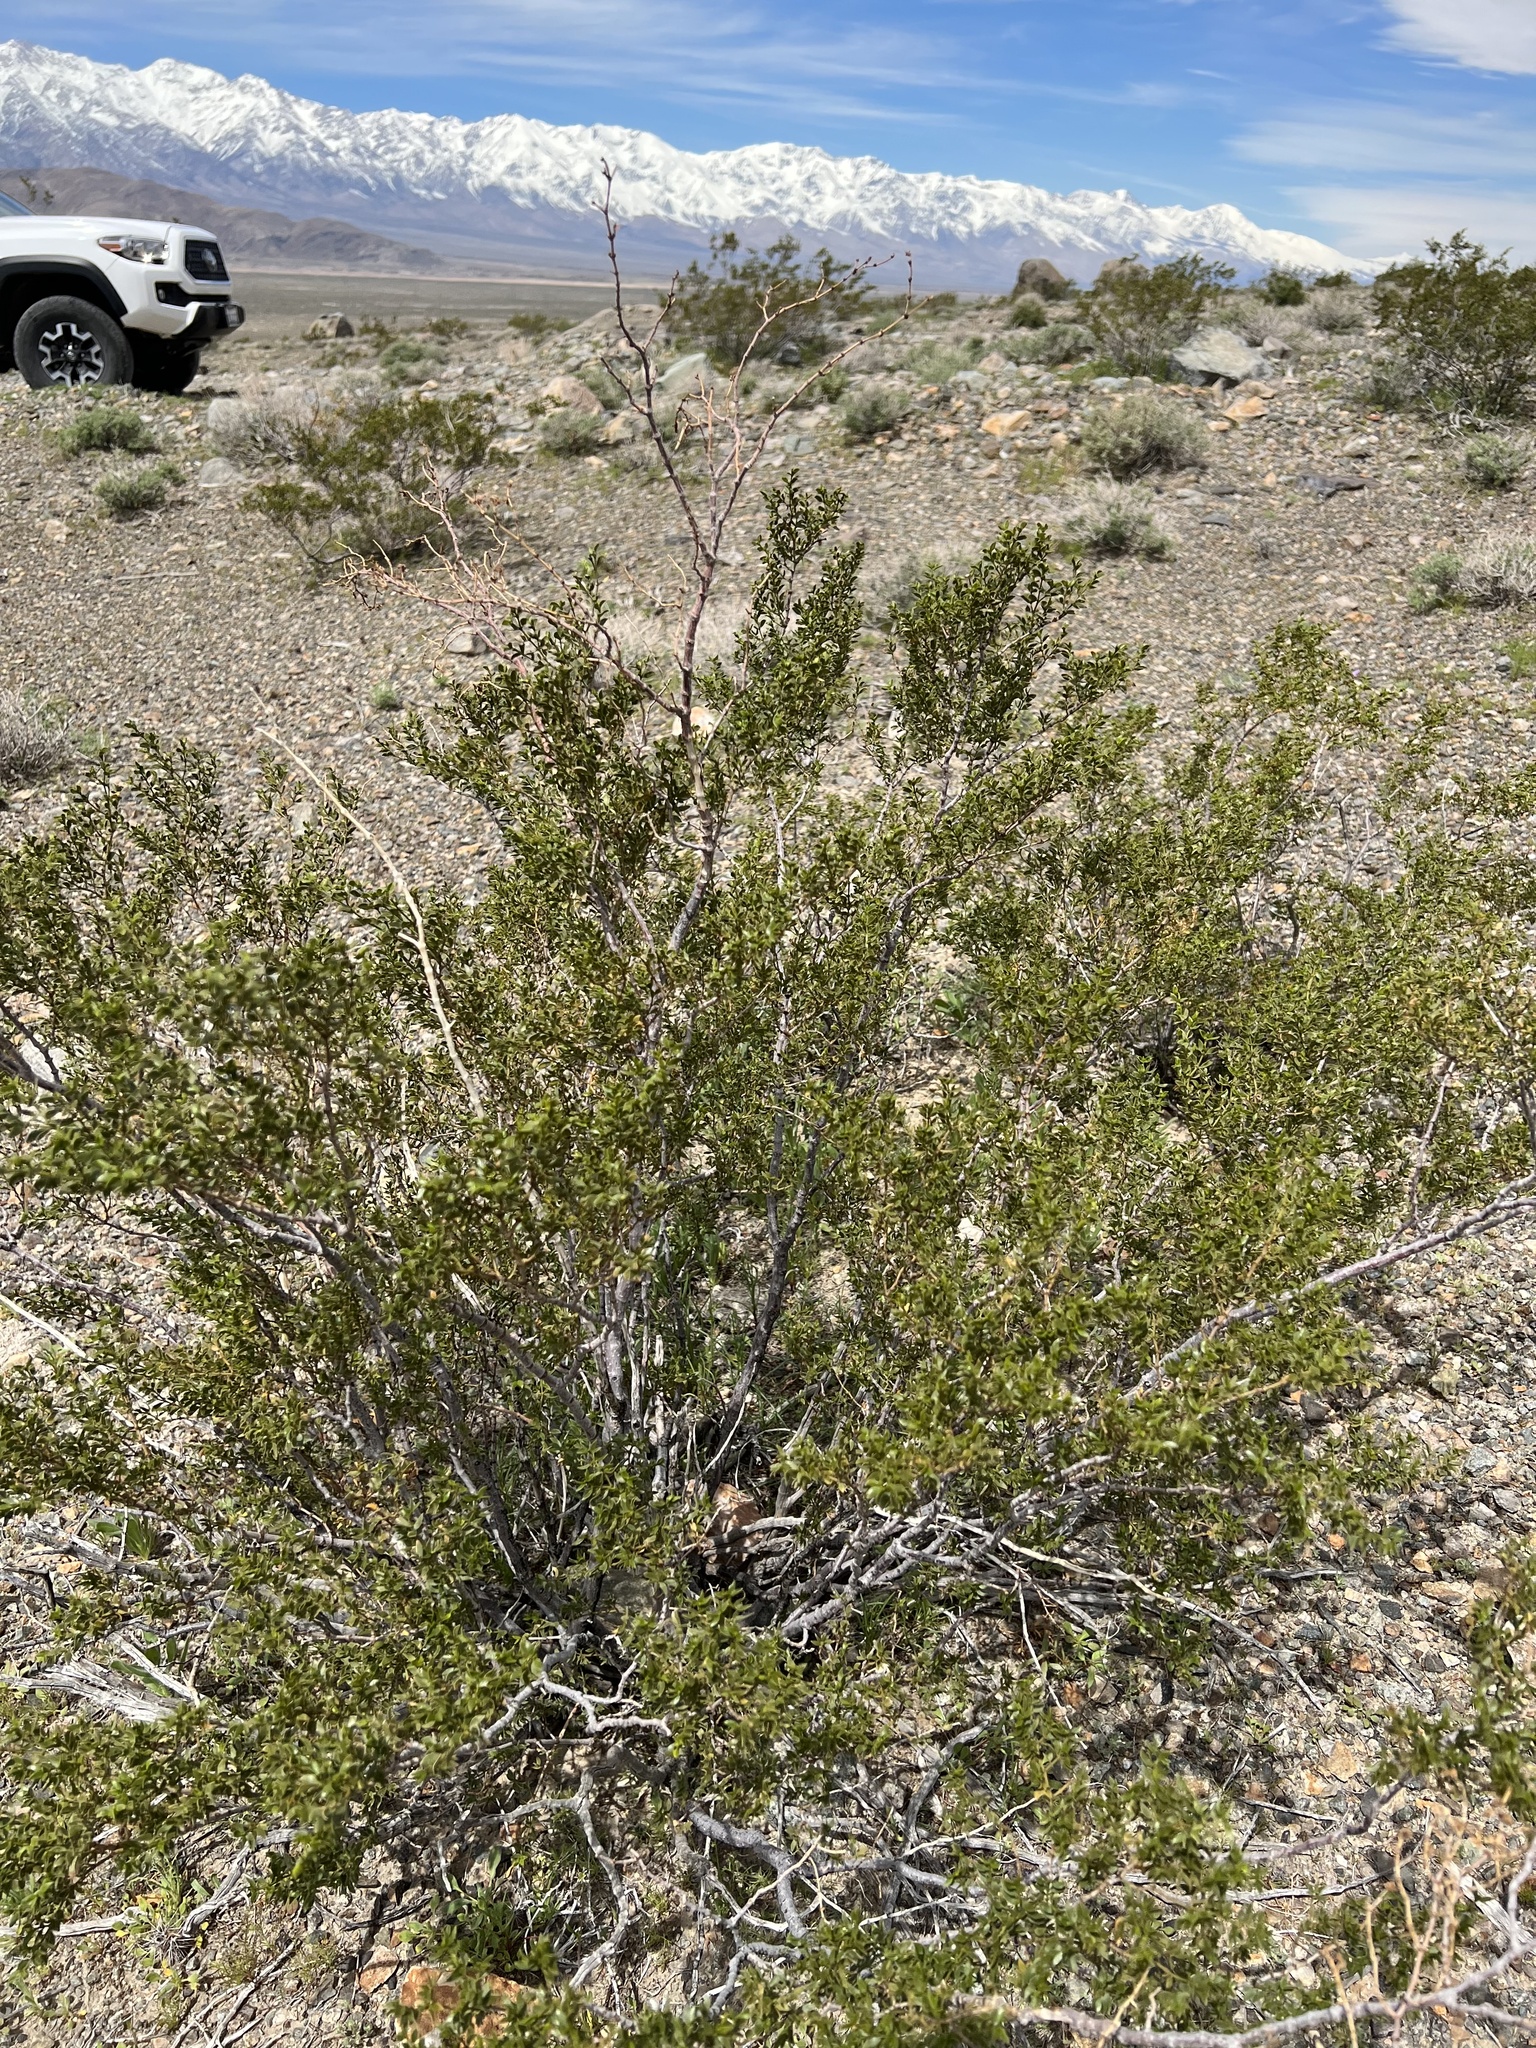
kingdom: Plantae
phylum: Tracheophyta
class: Magnoliopsida
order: Zygophyllales
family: Zygophyllaceae
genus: Larrea
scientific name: Larrea tridentata
